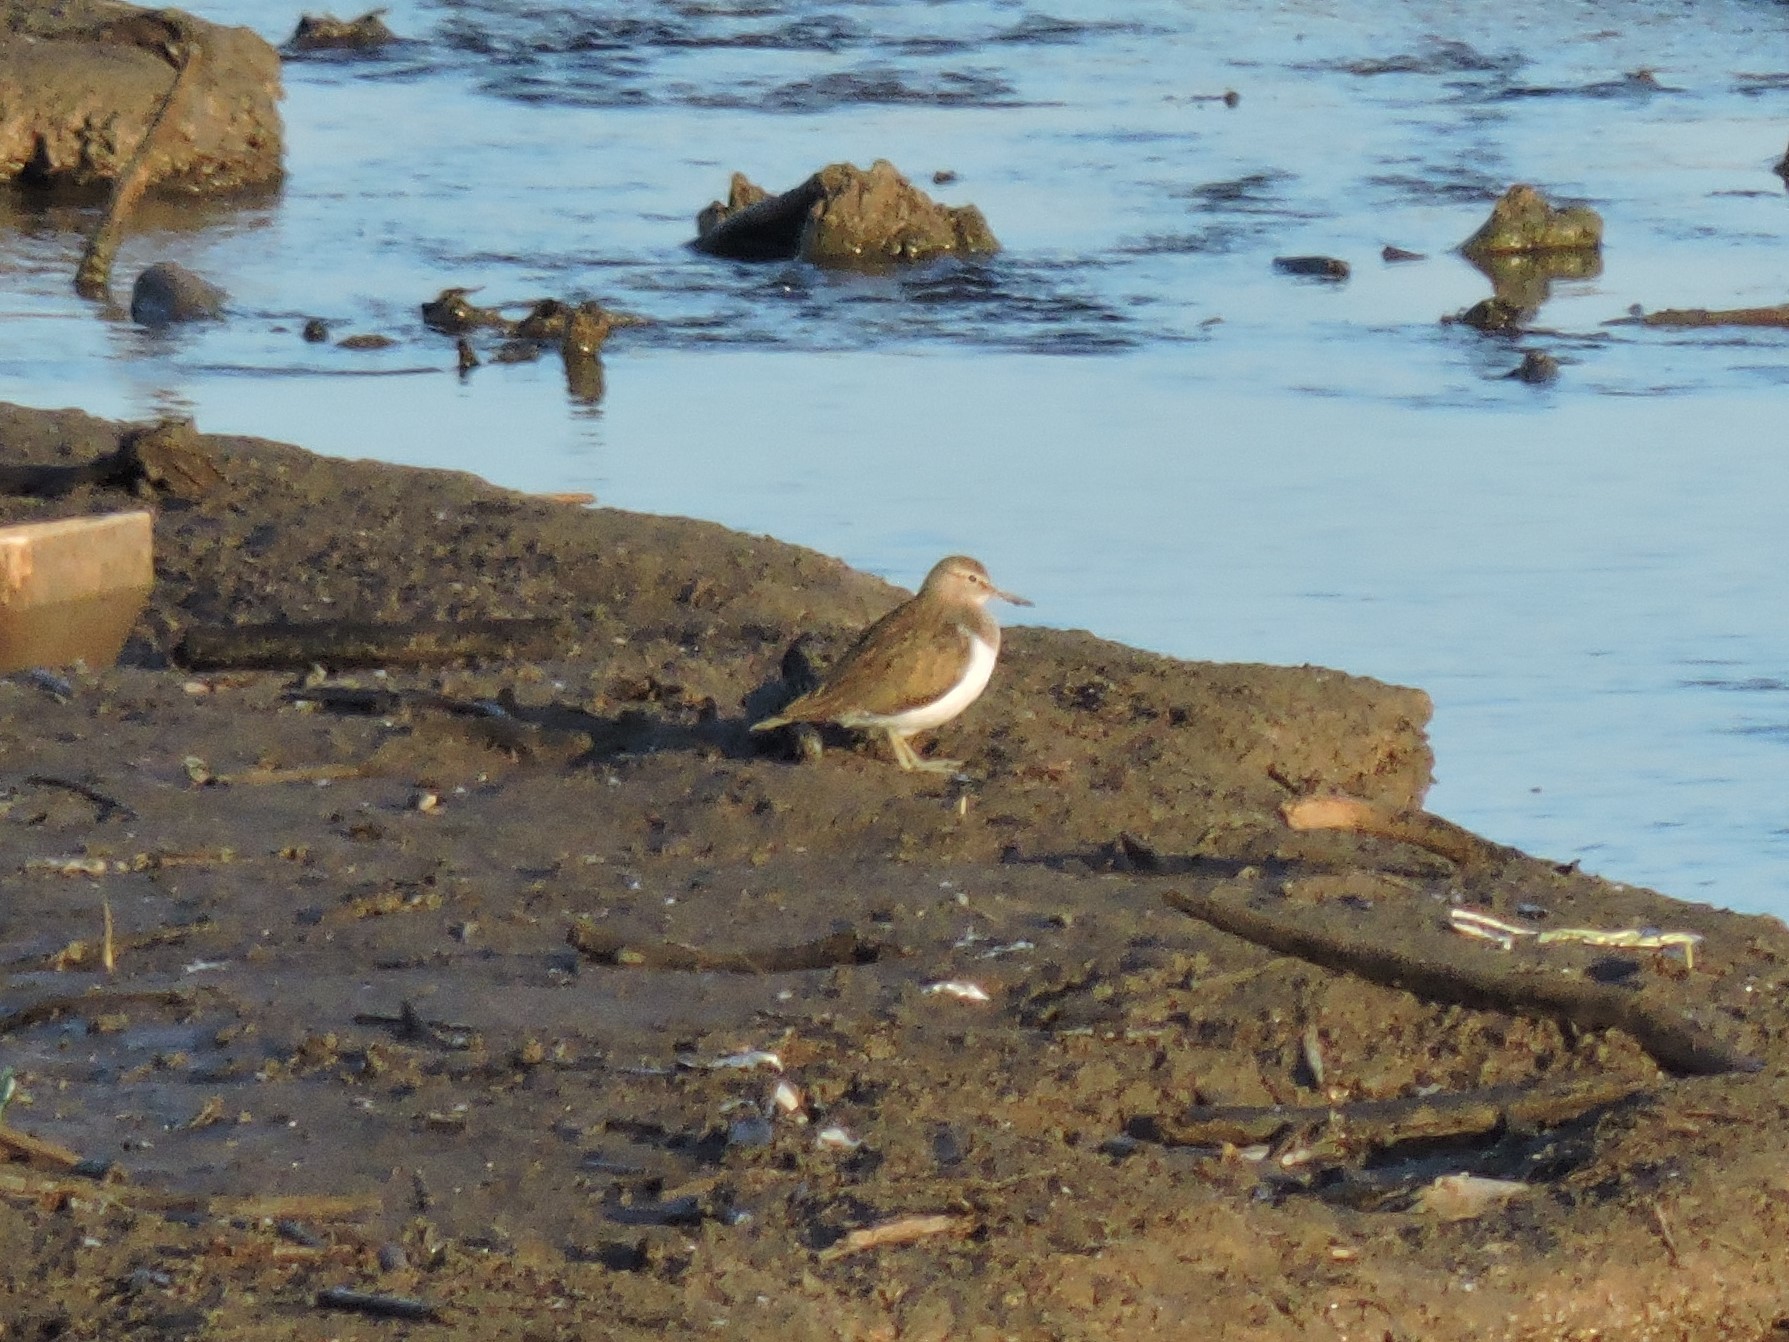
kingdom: Animalia
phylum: Chordata
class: Aves
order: Charadriiformes
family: Scolopacidae
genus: Actitis
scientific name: Actitis hypoleucos
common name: Common sandpiper
